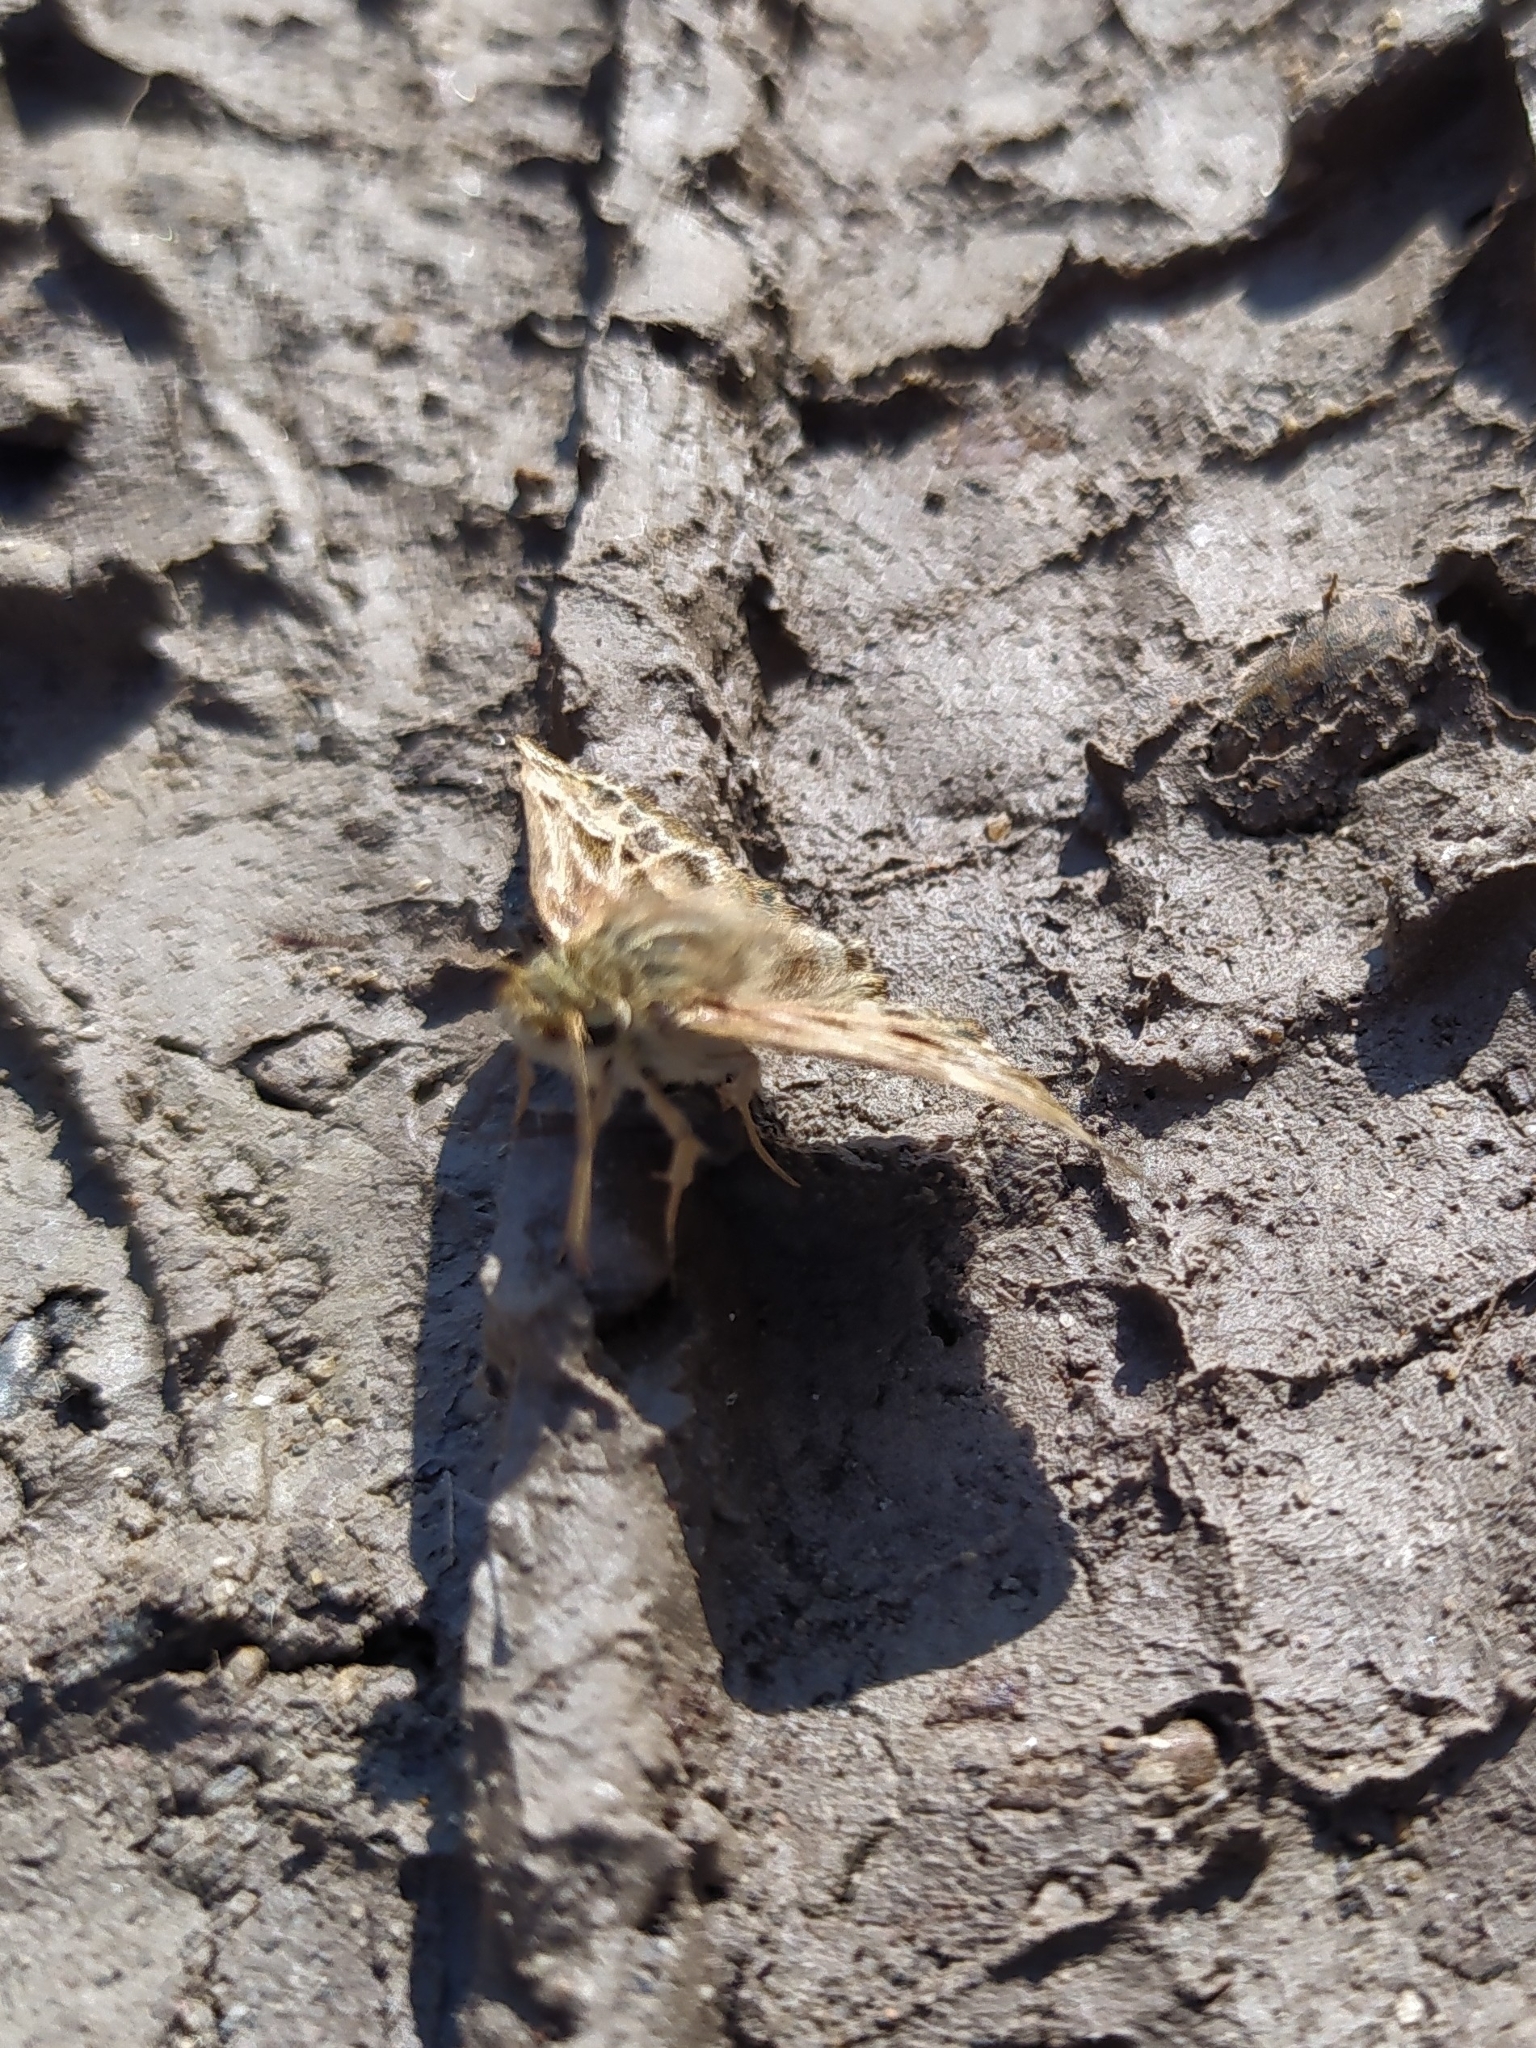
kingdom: Animalia
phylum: Arthropoda
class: Insecta
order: Lepidoptera
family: Hesperiidae
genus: Carcharodus
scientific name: Carcharodus alceae
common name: Mallow skipper
